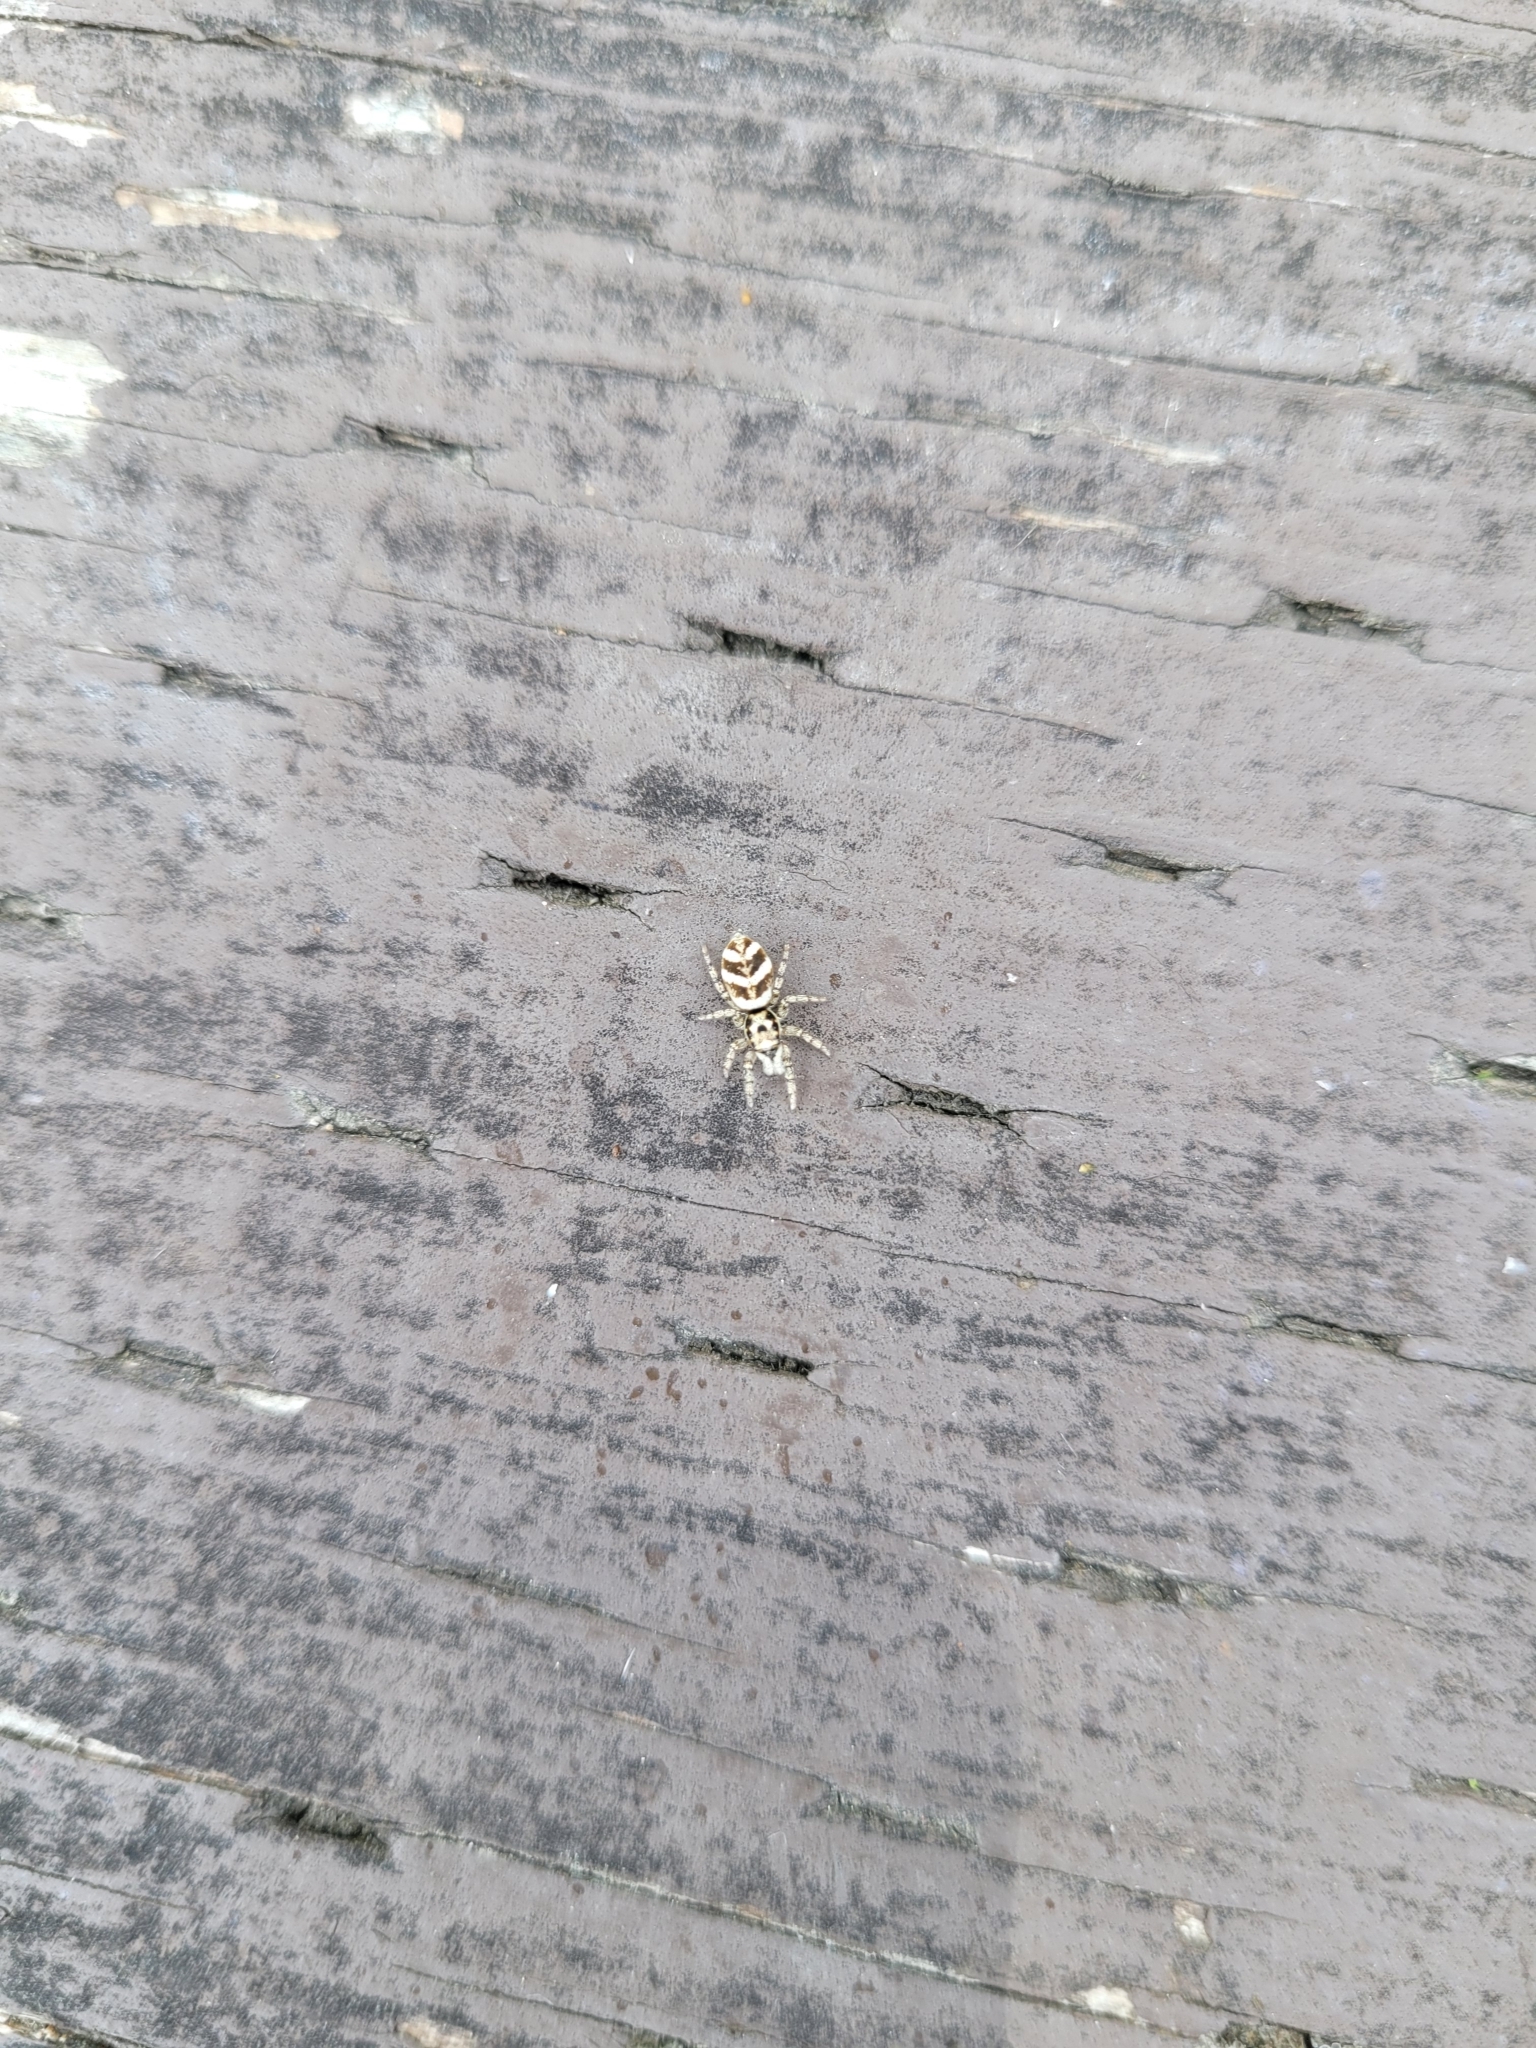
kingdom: Animalia
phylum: Arthropoda
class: Arachnida
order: Araneae
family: Salticidae
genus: Salticus
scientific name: Salticus scenicus
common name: Zebra jumper
